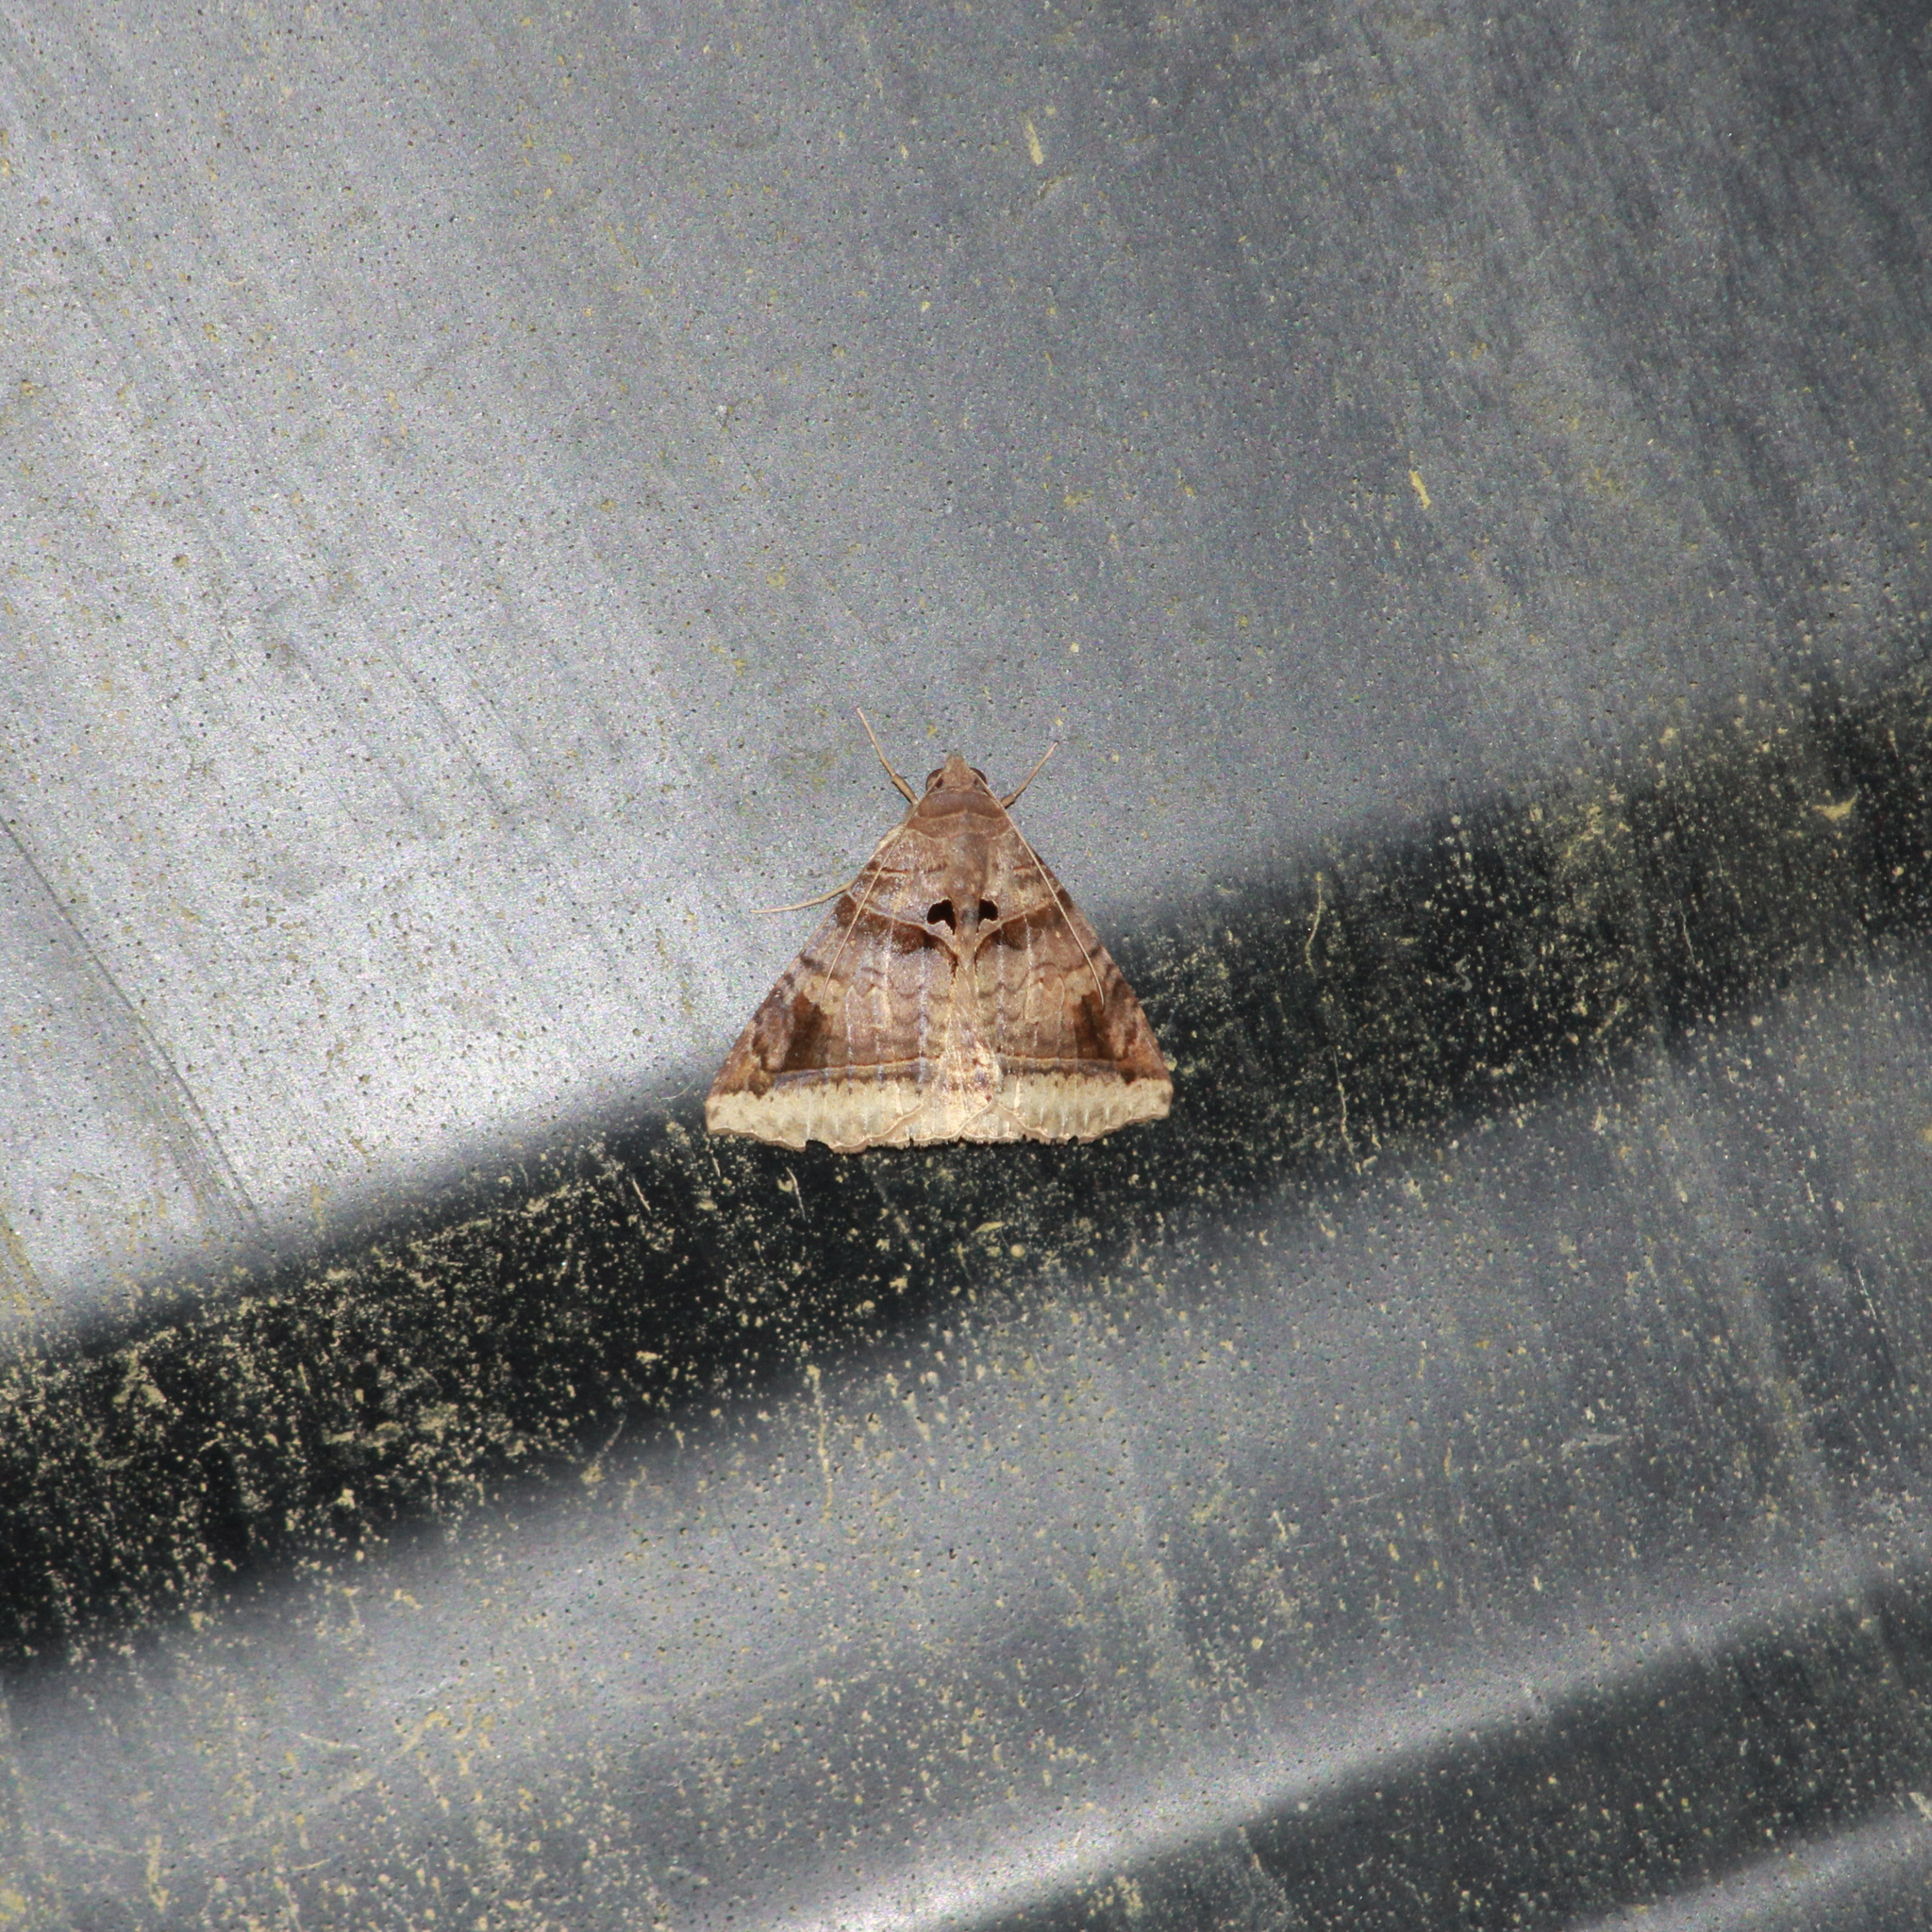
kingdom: Animalia
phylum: Arthropoda
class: Insecta
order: Lepidoptera
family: Erebidae
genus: Celiptera
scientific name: Celiptera levina
